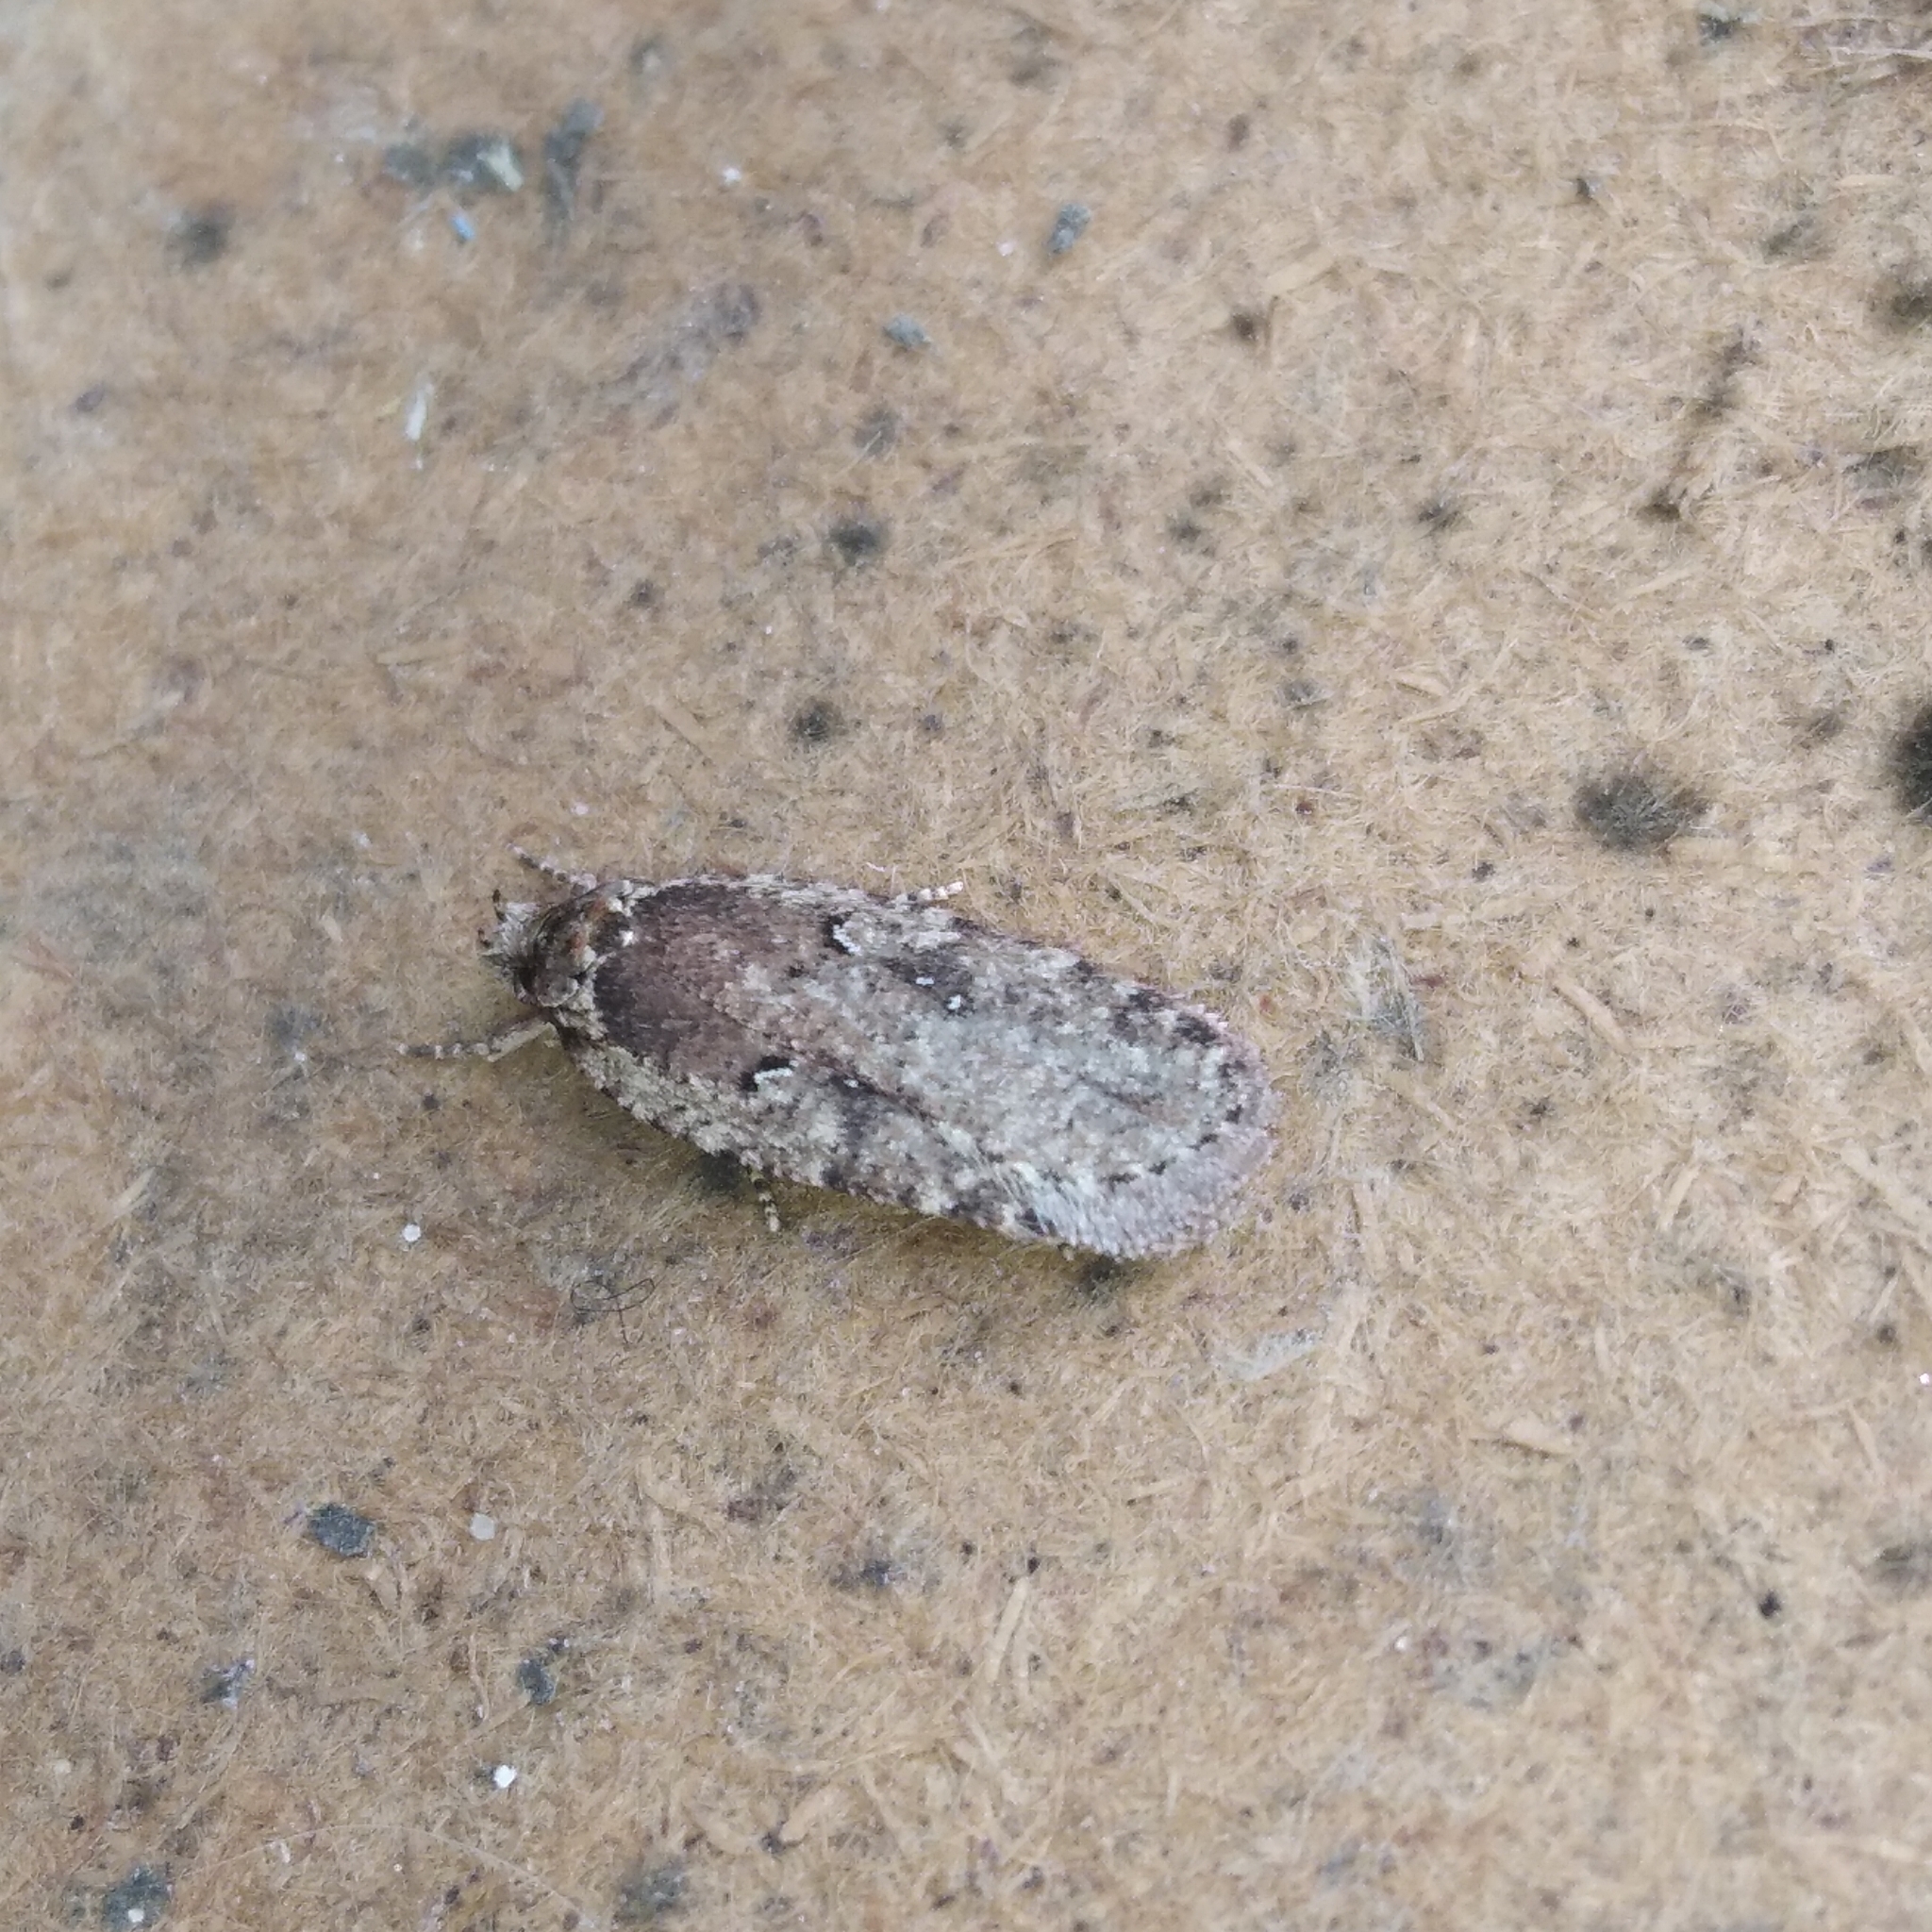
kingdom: Animalia
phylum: Arthropoda
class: Insecta
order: Lepidoptera
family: Depressariidae
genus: Agonopterix
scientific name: Agonopterix
